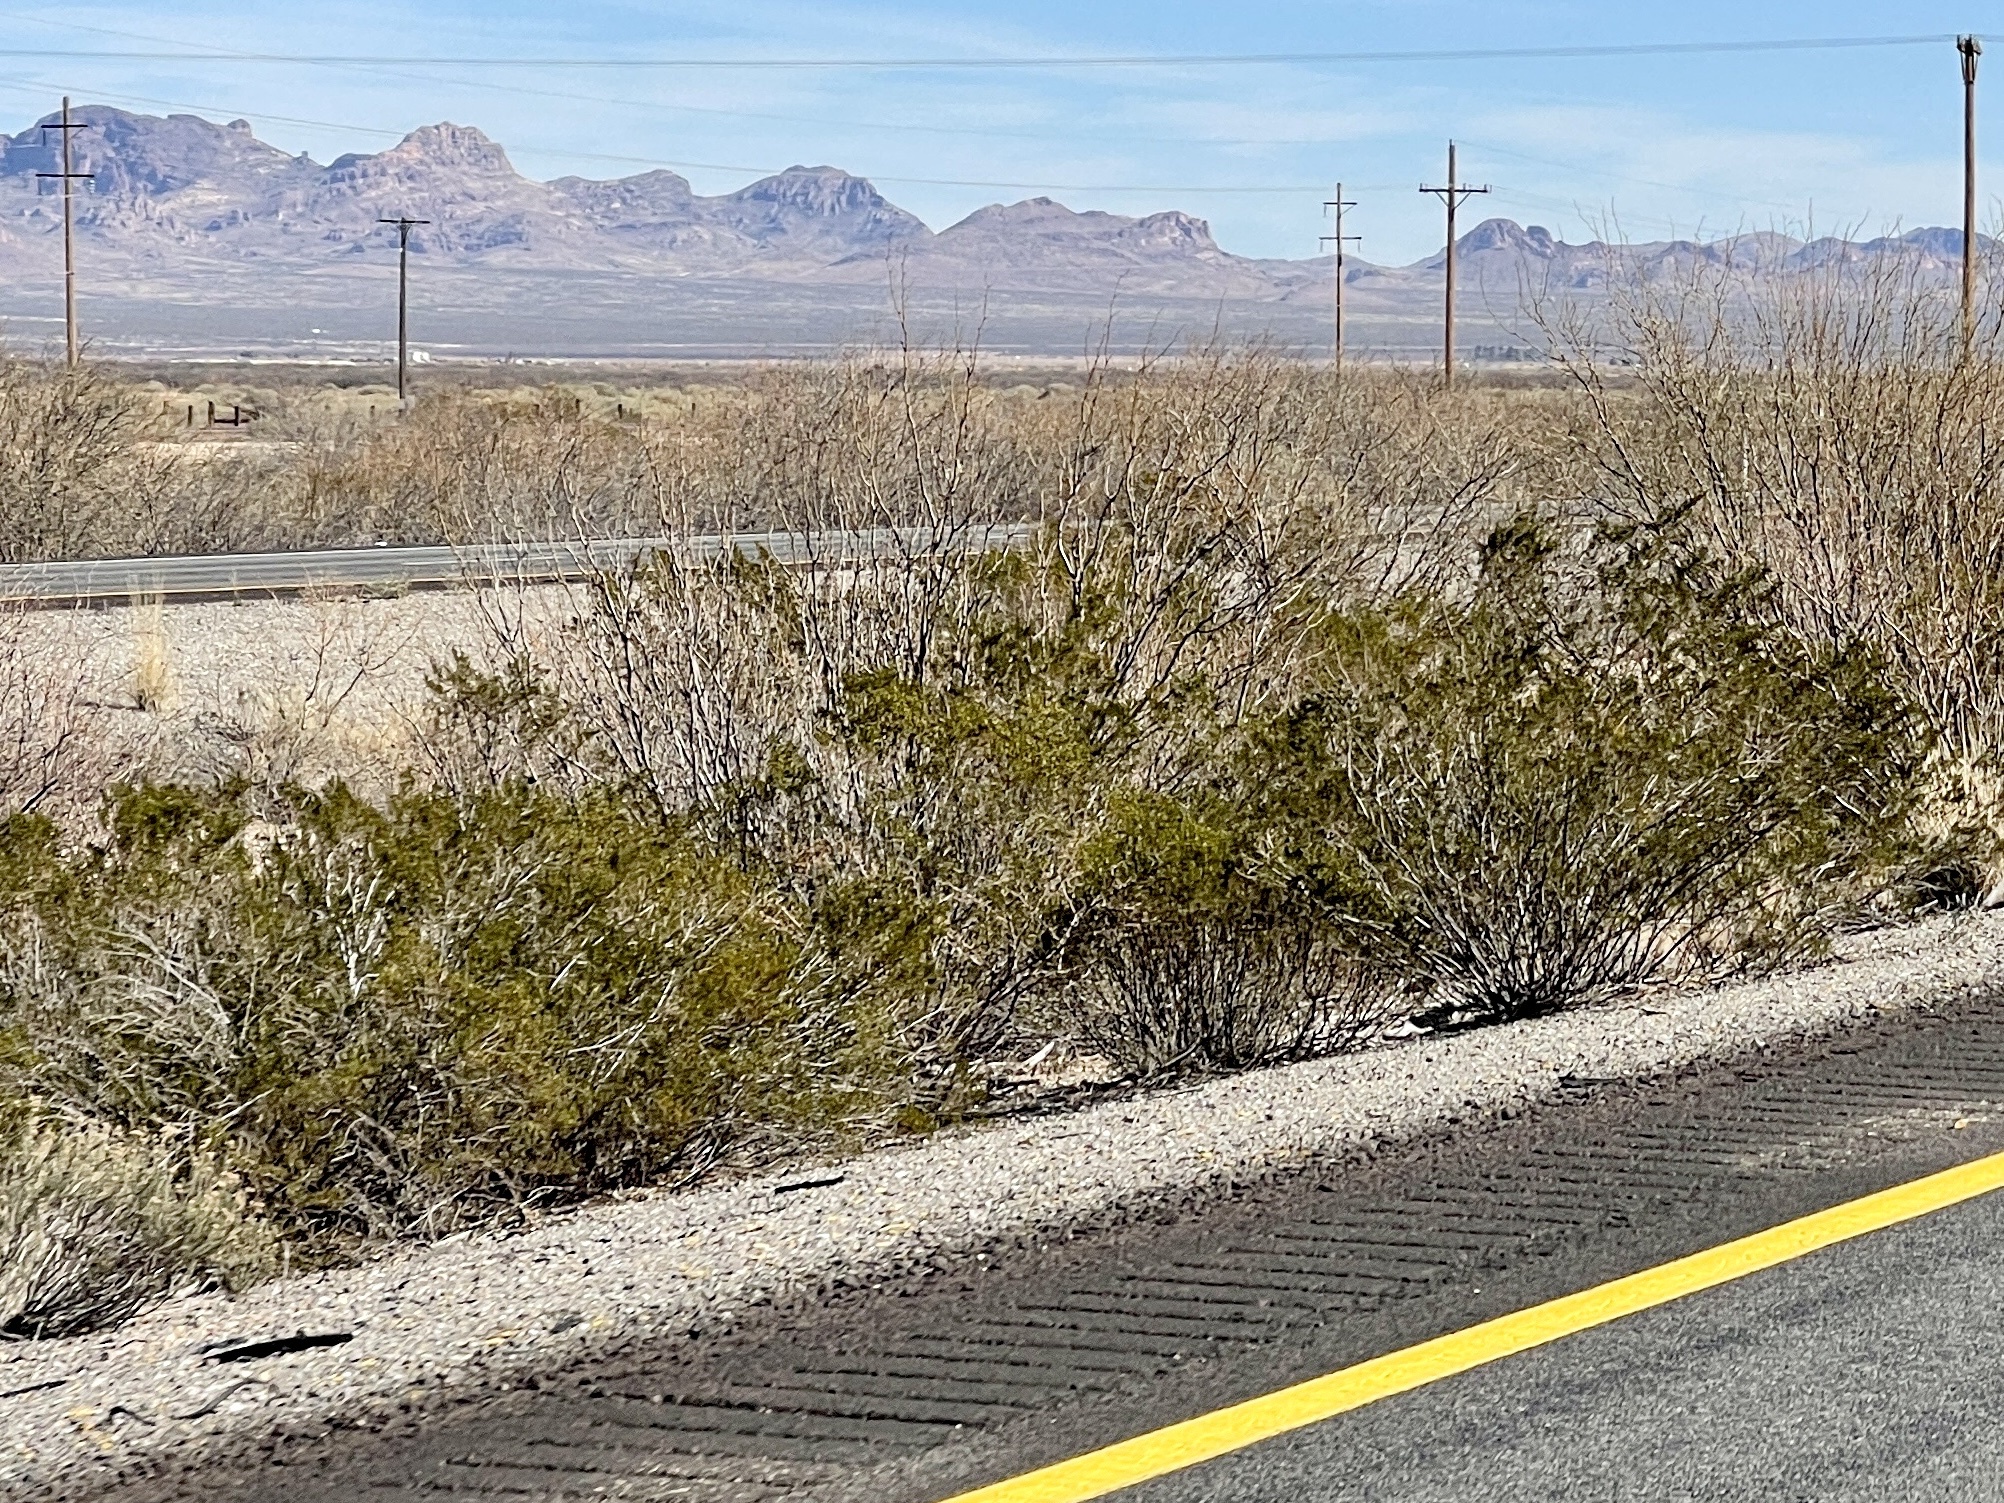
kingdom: Plantae
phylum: Tracheophyta
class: Magnoliopsida
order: Zygophyllales
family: Zygophyllaceae
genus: Larrea
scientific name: Larrea tridentata
